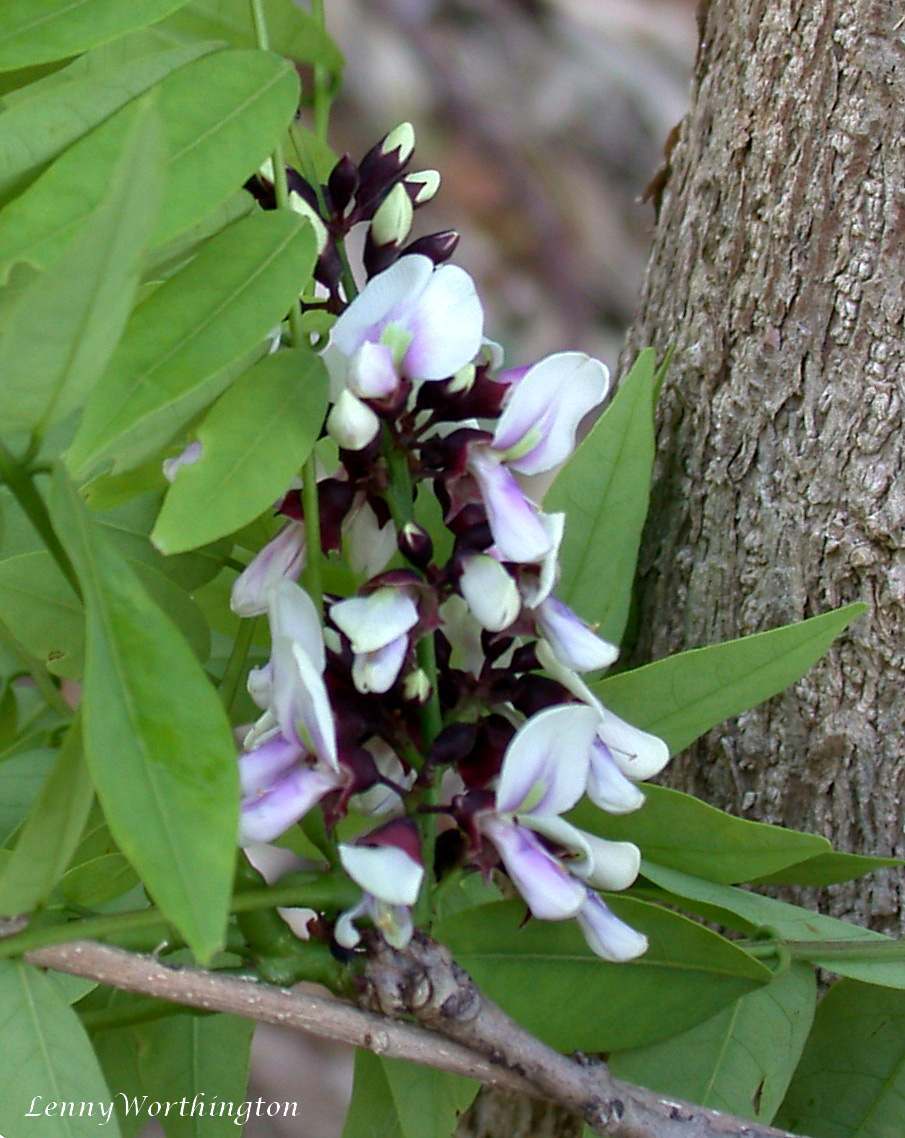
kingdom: Plantae
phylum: Tracheophyta
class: Magnoliopsida
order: Fabales
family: Fabaceae
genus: Millettia
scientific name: Millettia brandisiana
